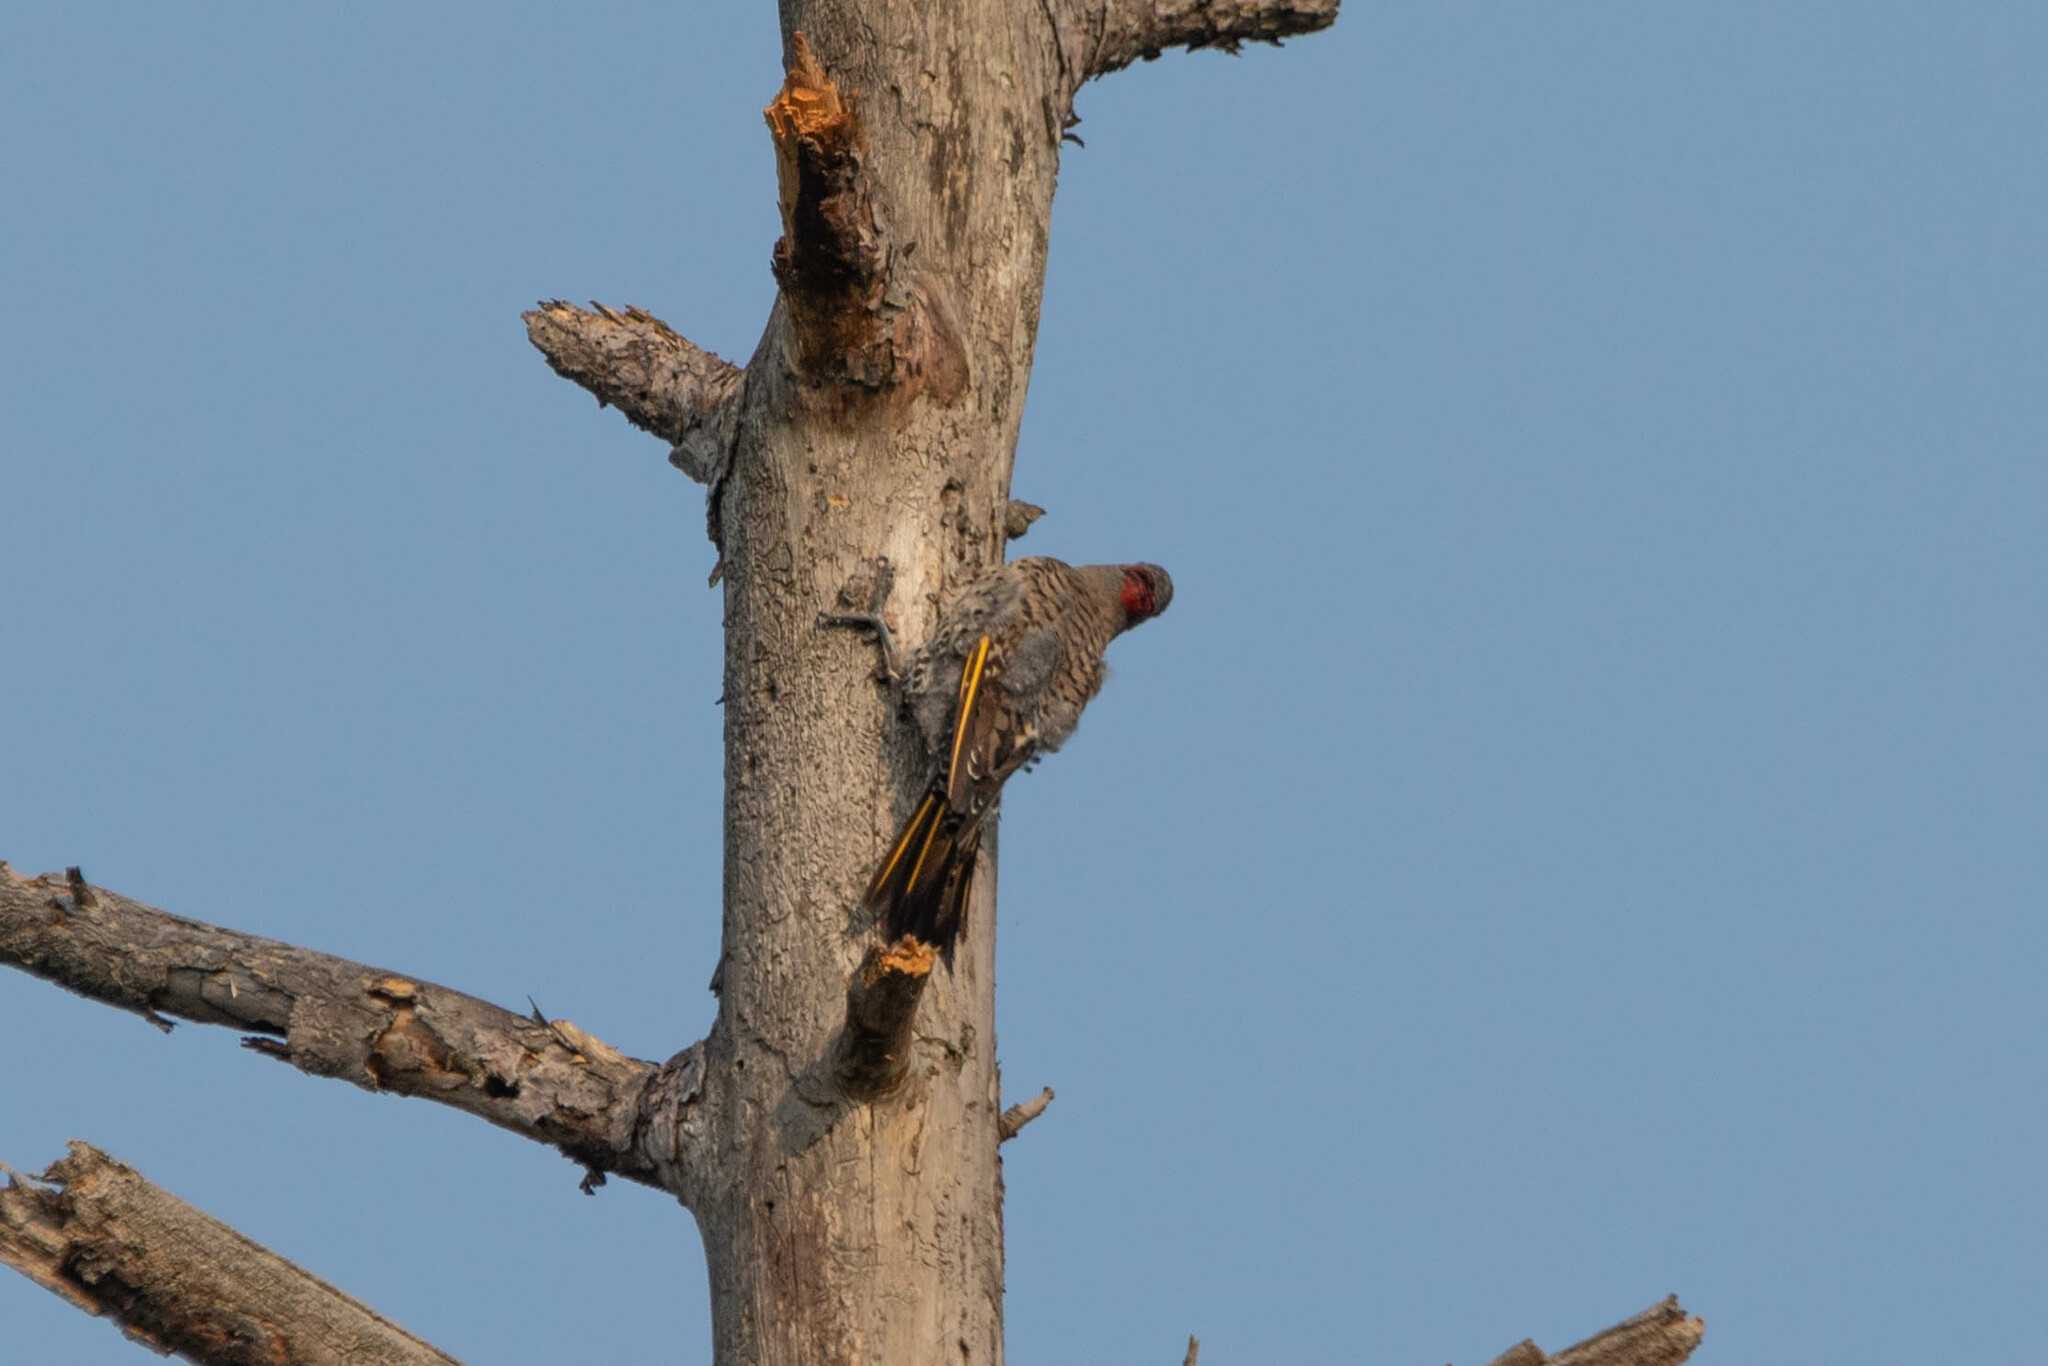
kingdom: Animalia
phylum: Chordata
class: Aves
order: Piciformes
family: Picidae
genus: Colaptes
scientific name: Colaptes auratus
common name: Northern flicker
